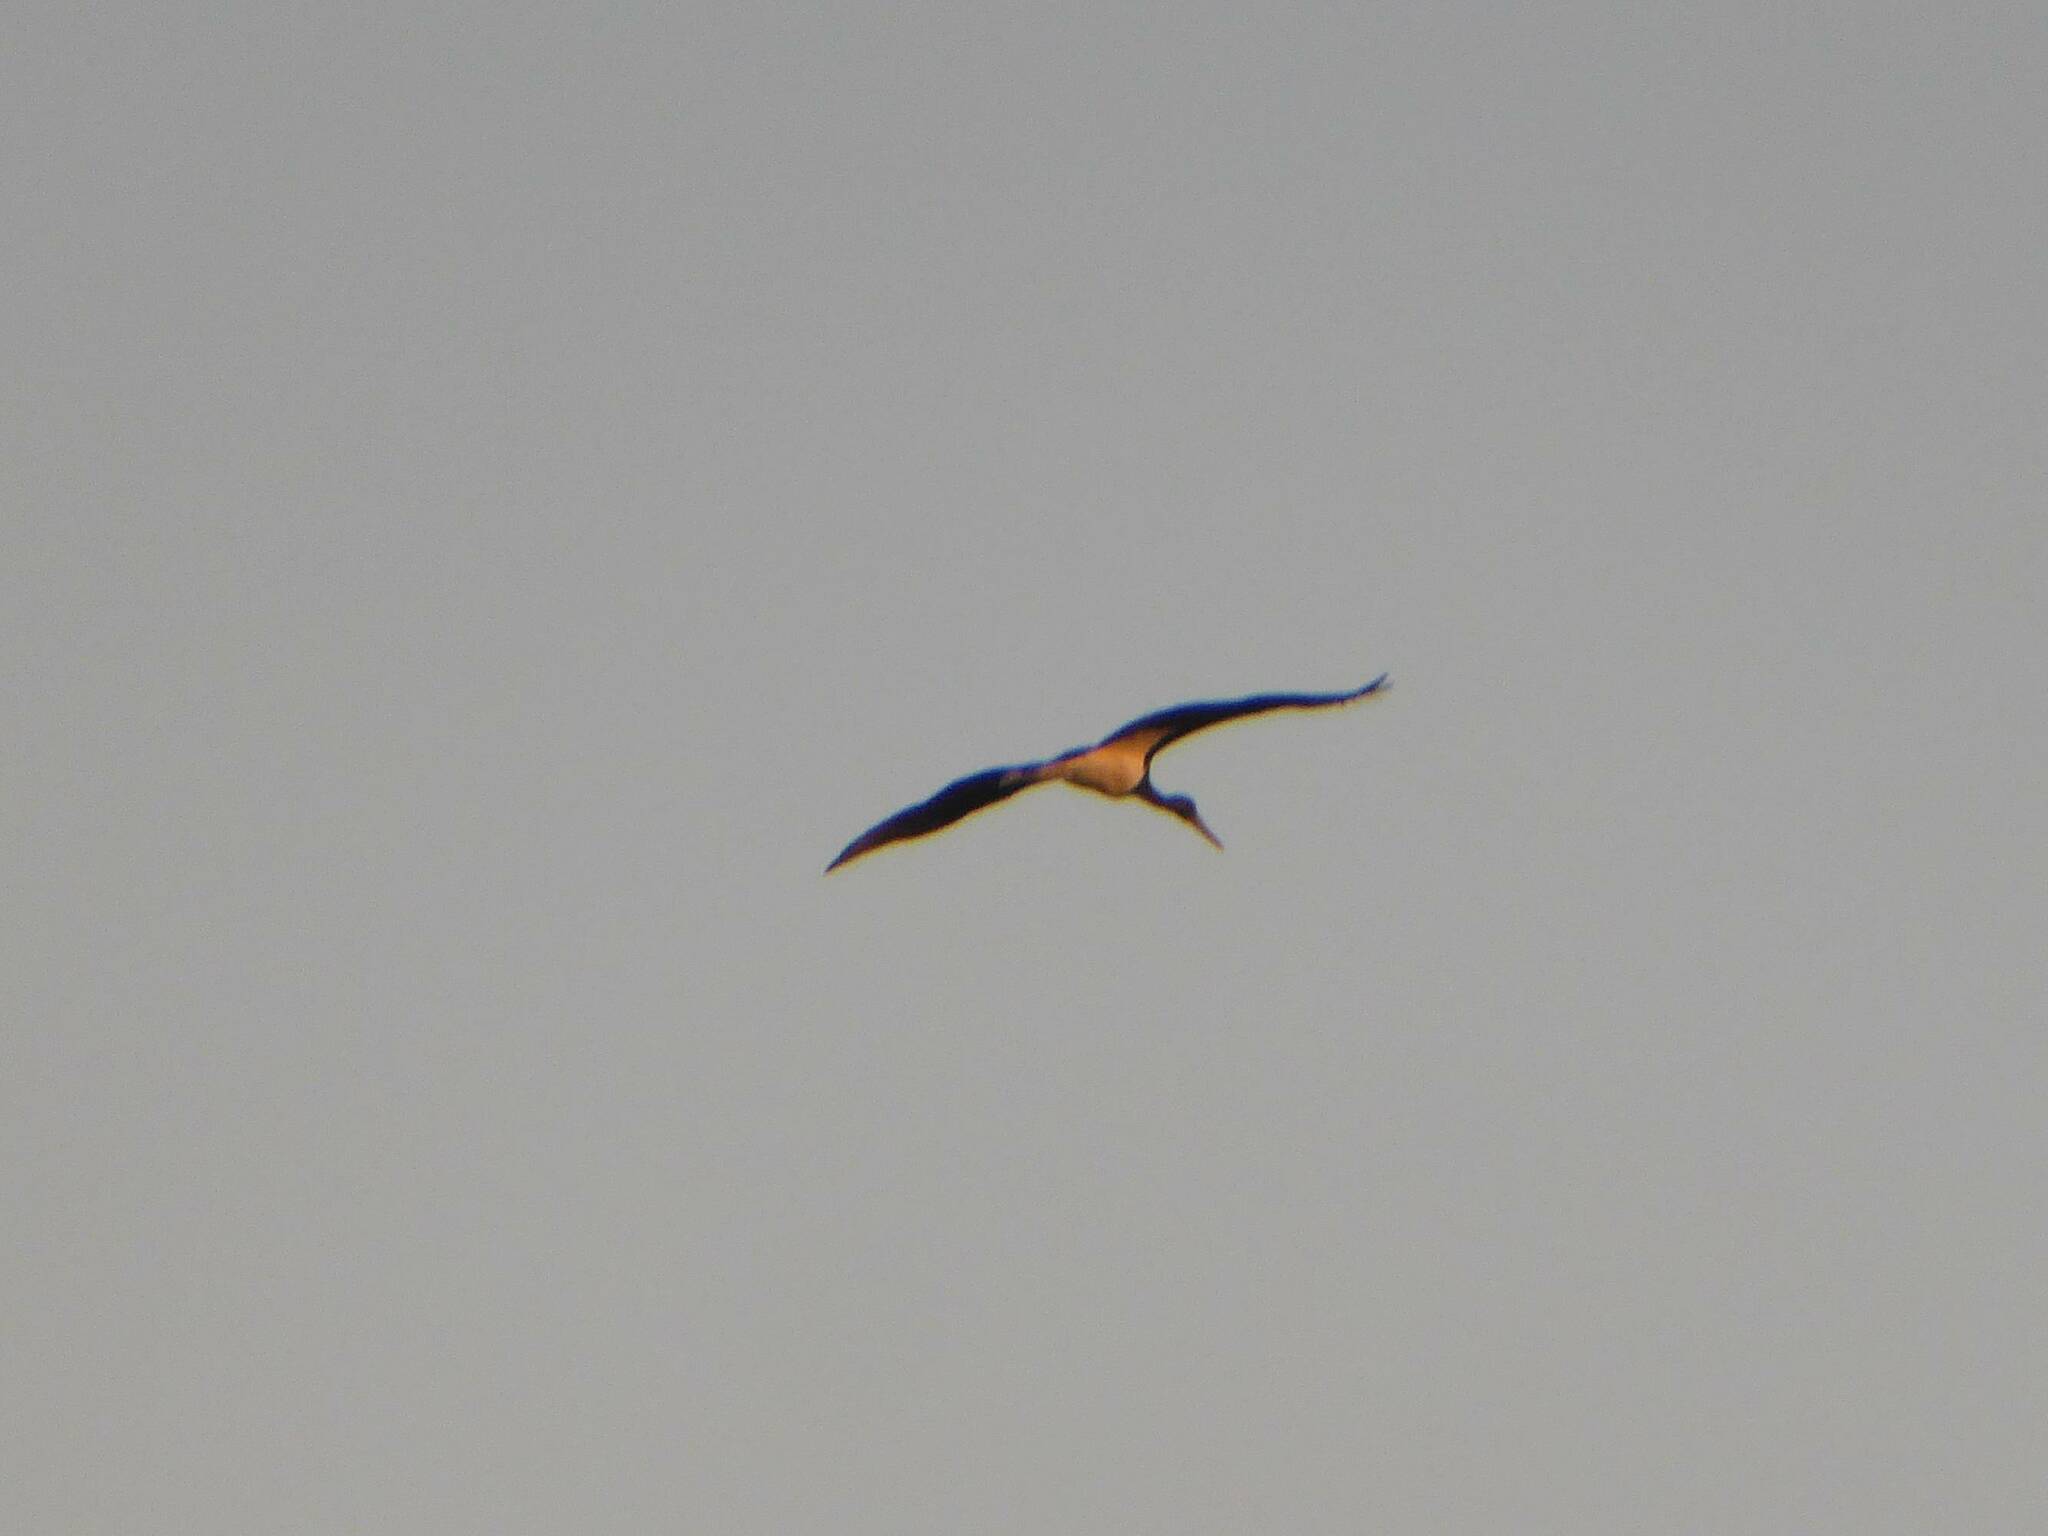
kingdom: Animalia
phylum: Chordata
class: Aves
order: Ciconiiformes
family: Ciconiidae
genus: Ciconia
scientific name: Ciconia nigra
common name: Black stork
